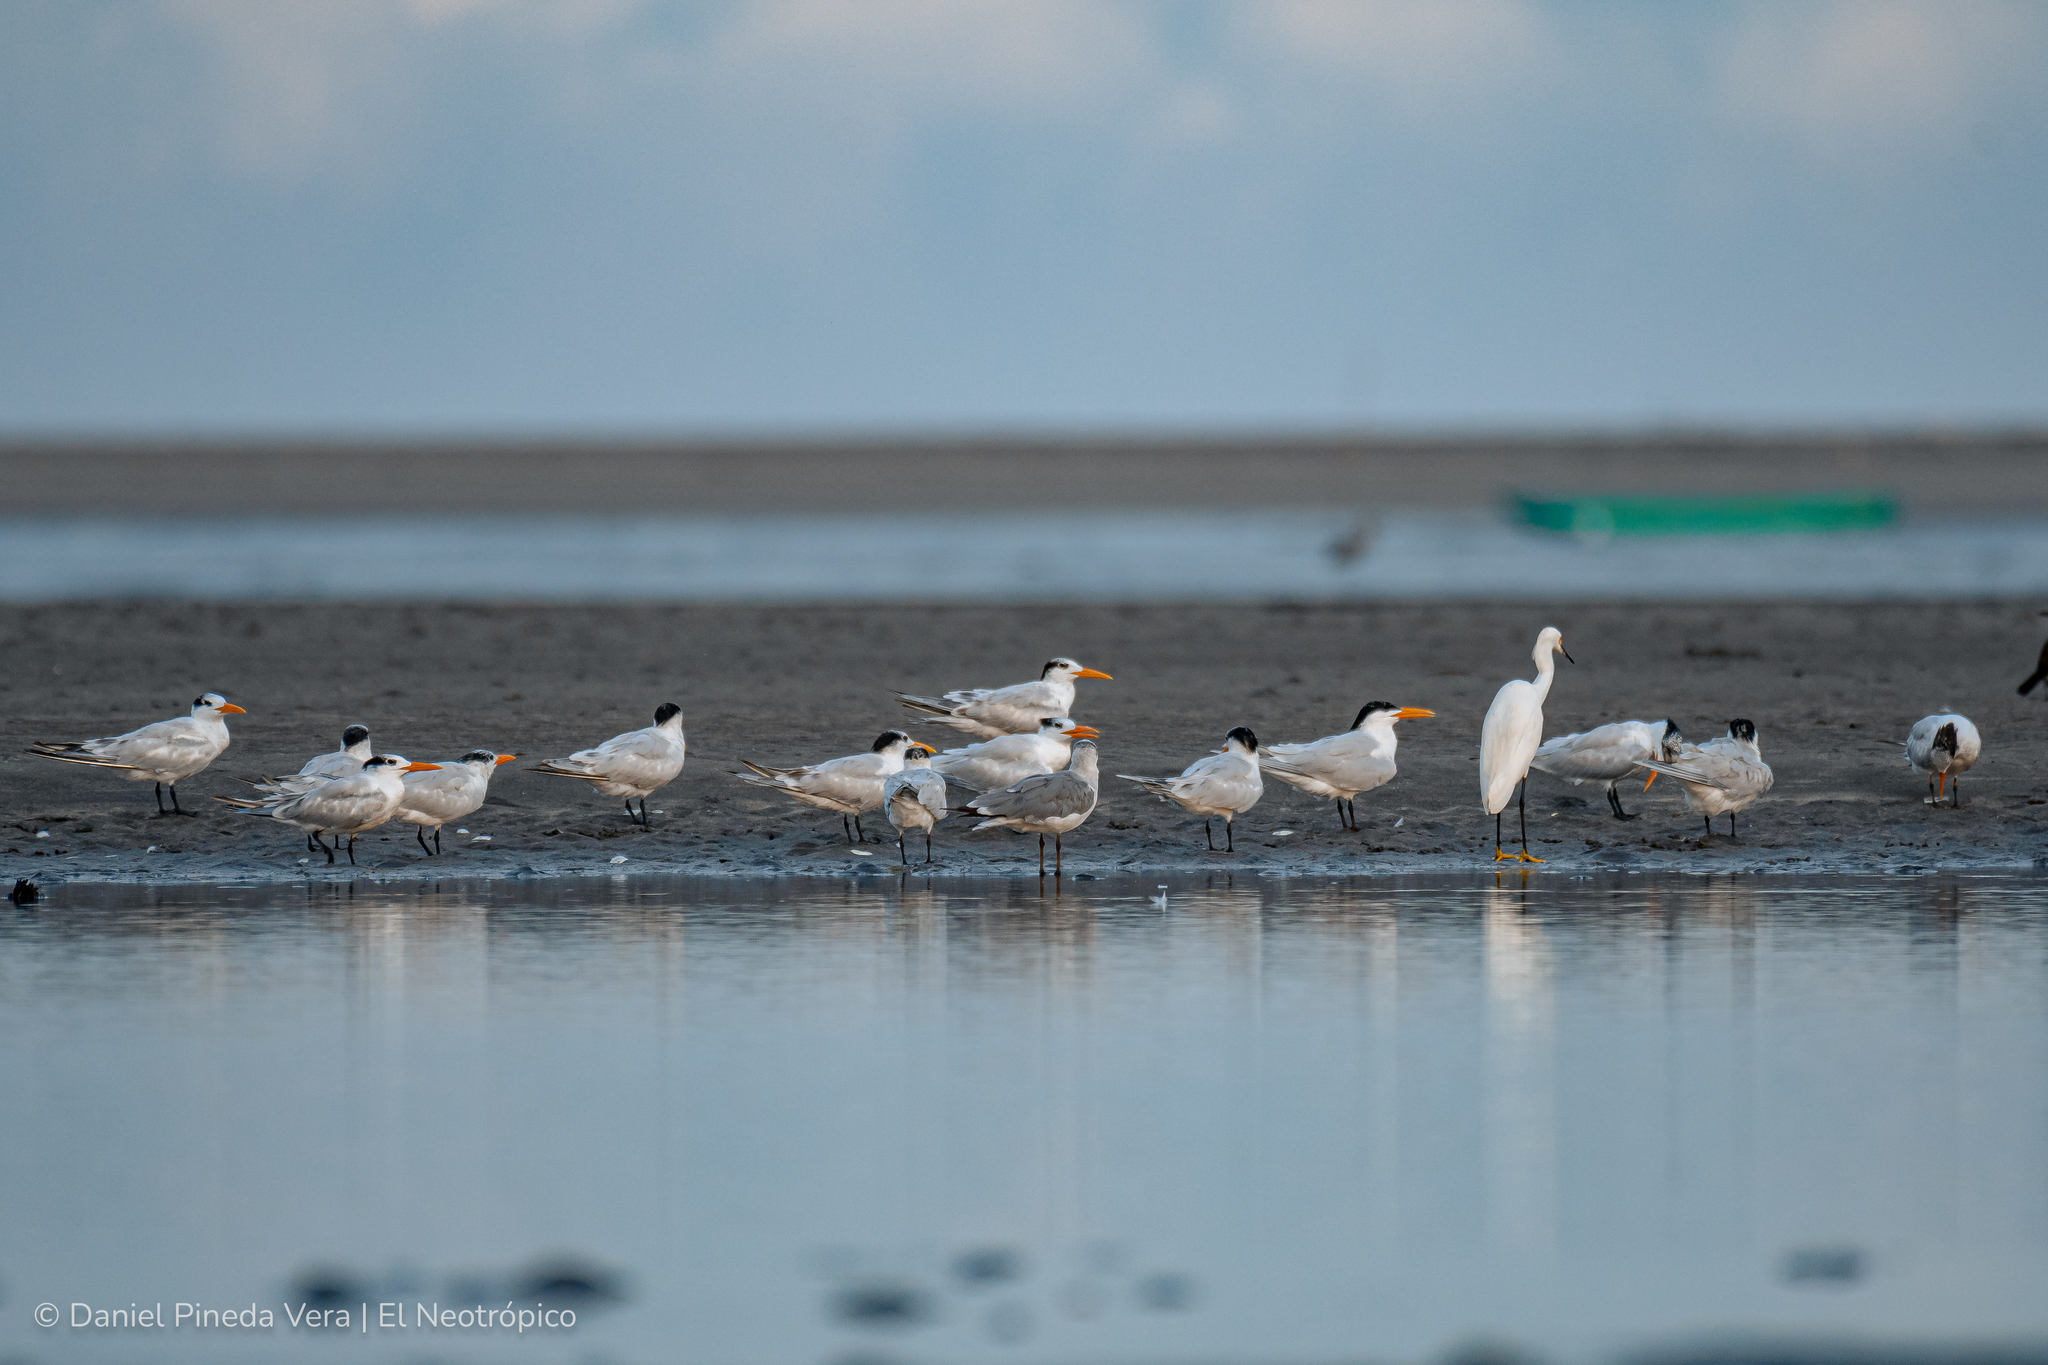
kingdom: Animalia
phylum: Chordata
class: Aves
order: Charadriiformes
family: Laridae
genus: Thalasseus
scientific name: Thalasseus maximus
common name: Royal tern
